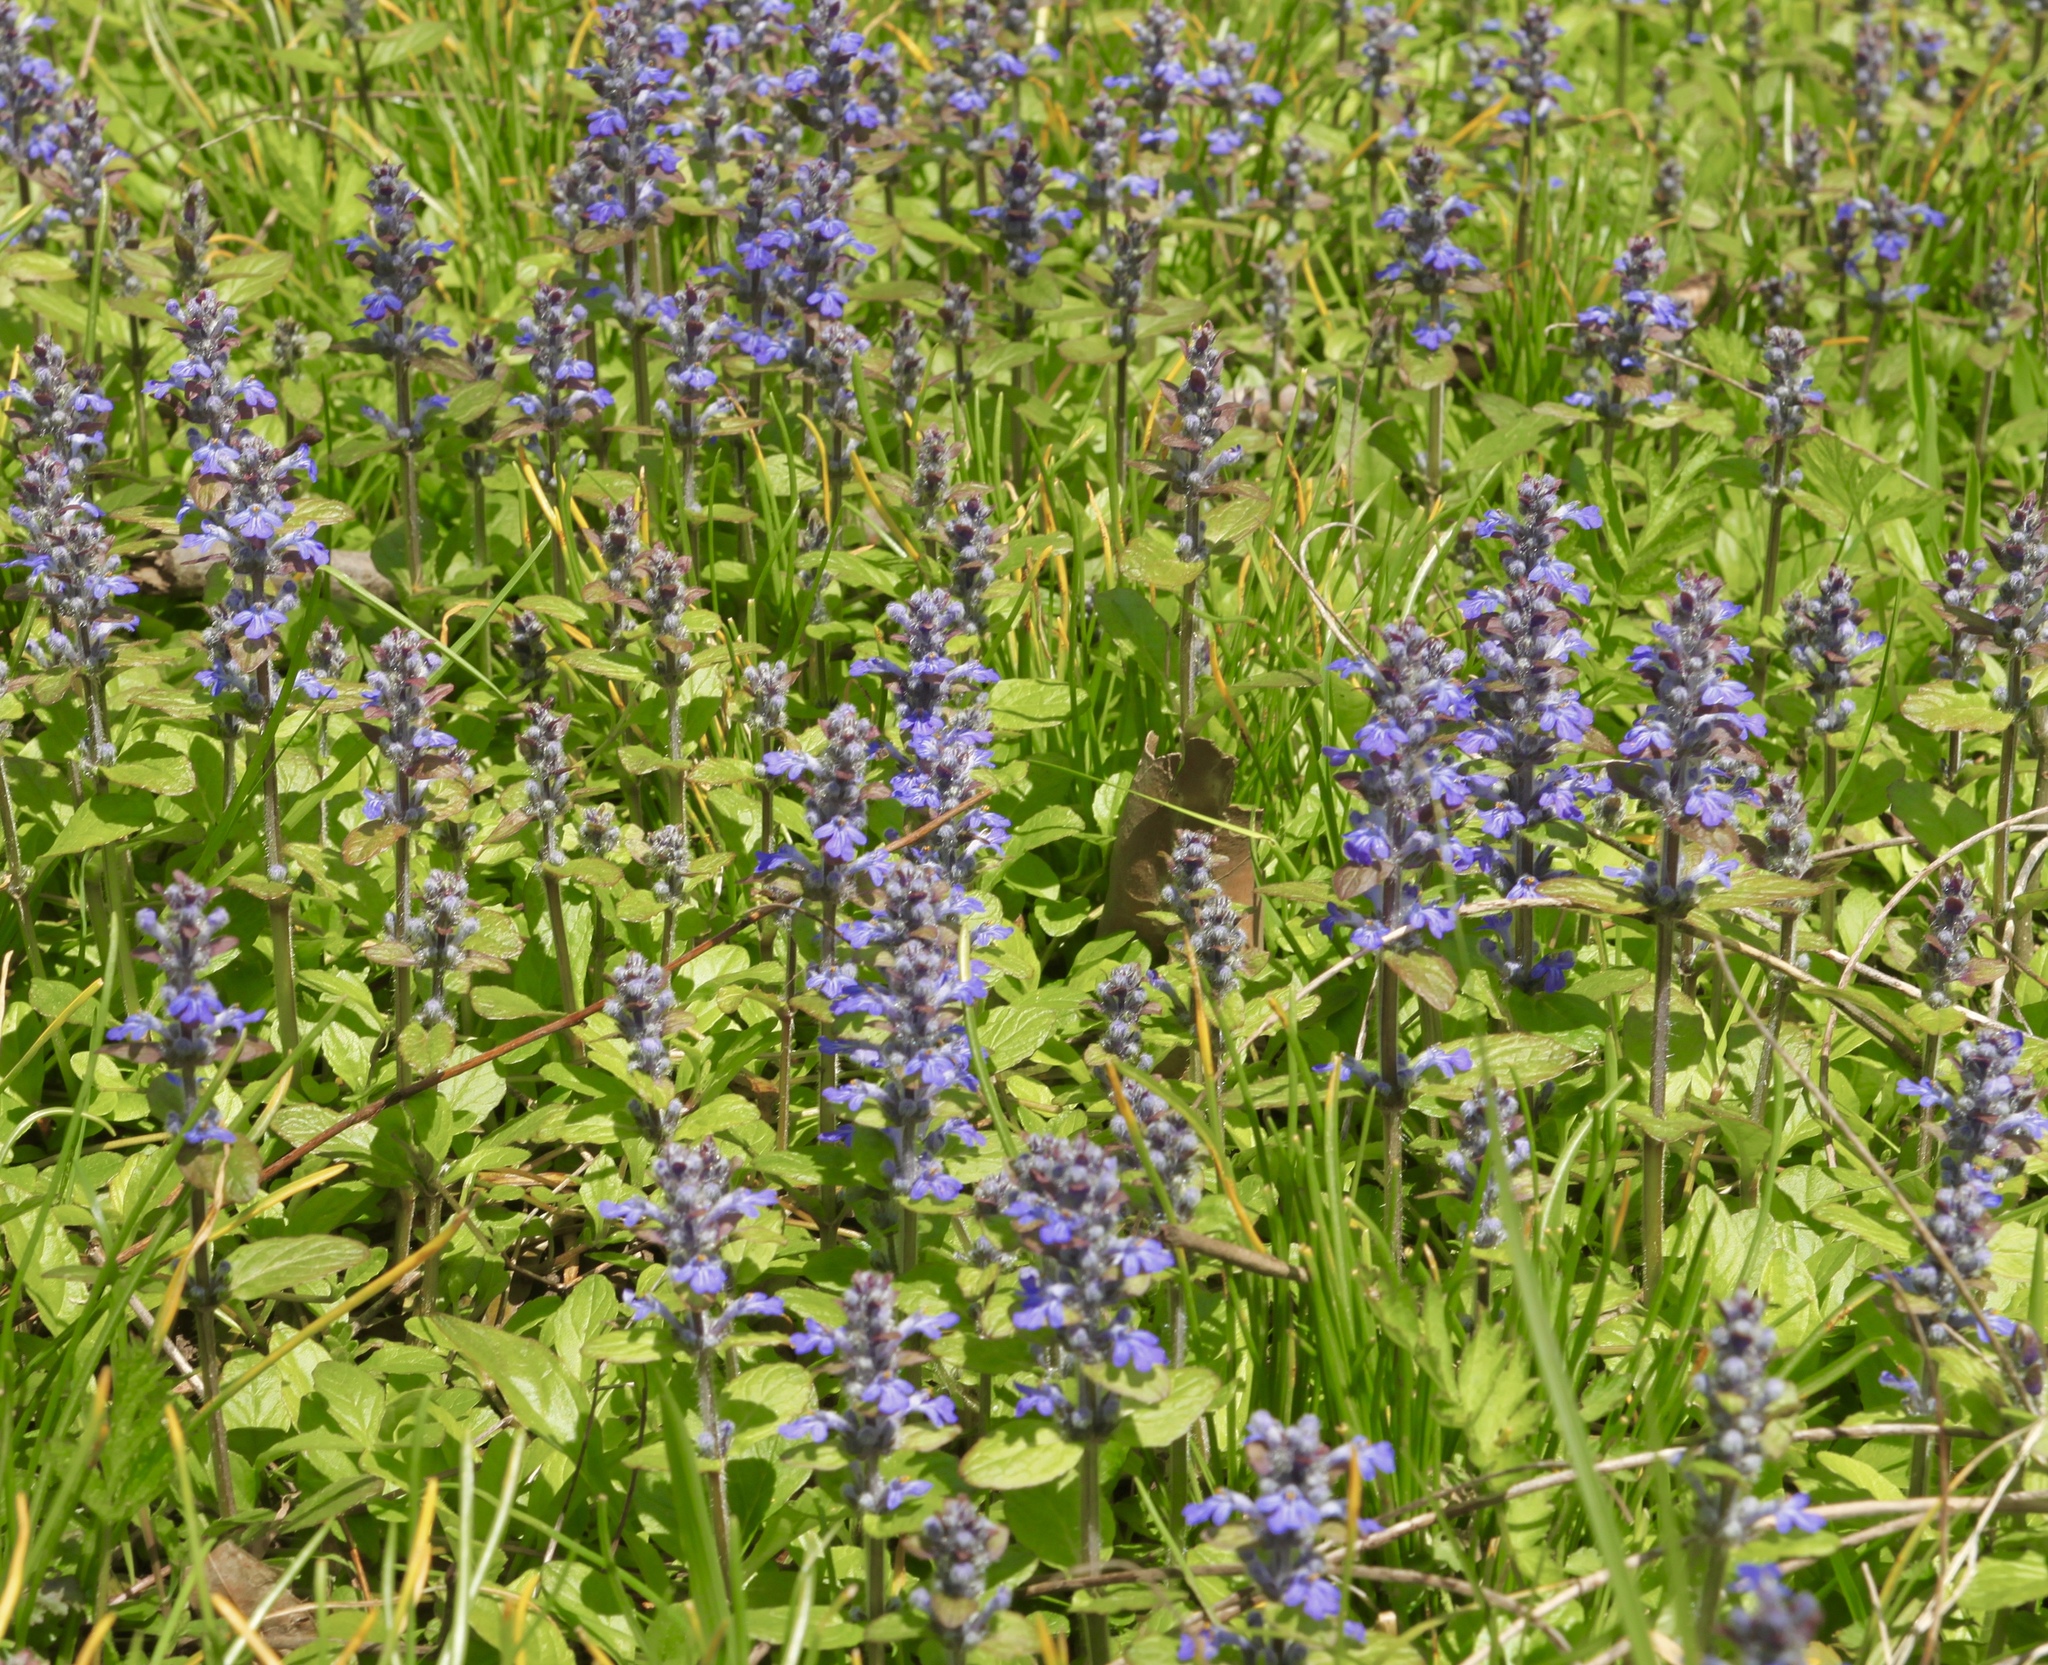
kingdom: Plantae
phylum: Tracheophyta
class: Magnoliopsida
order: Lamiales
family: Lamiaceae
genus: Ajuga
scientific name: Ajuga reptans
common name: Bugle
